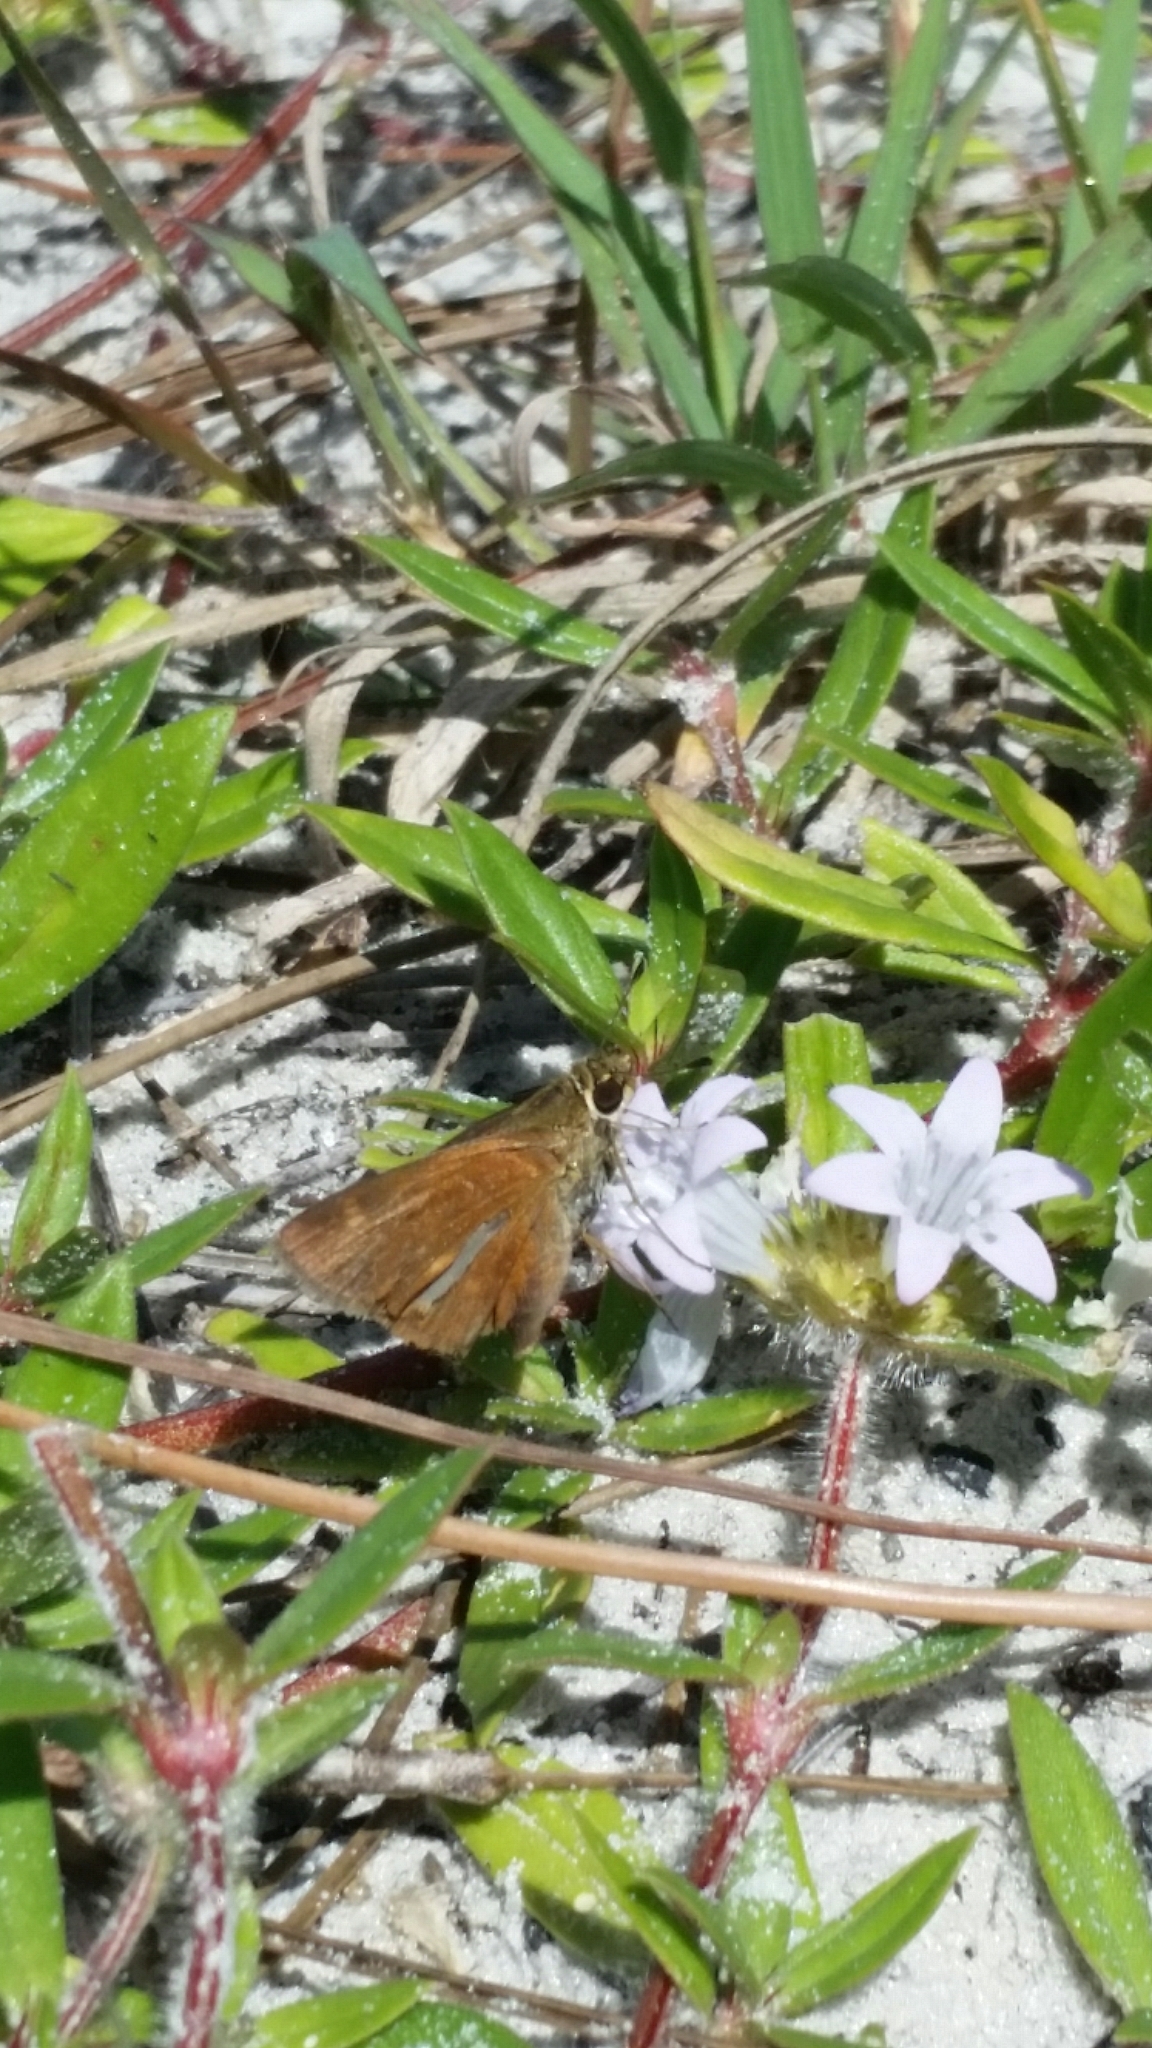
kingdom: Animalia
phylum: Arthropoda
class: Insecta
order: Lepidoptera
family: Hesperiidae
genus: Polites
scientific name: Polites otho
